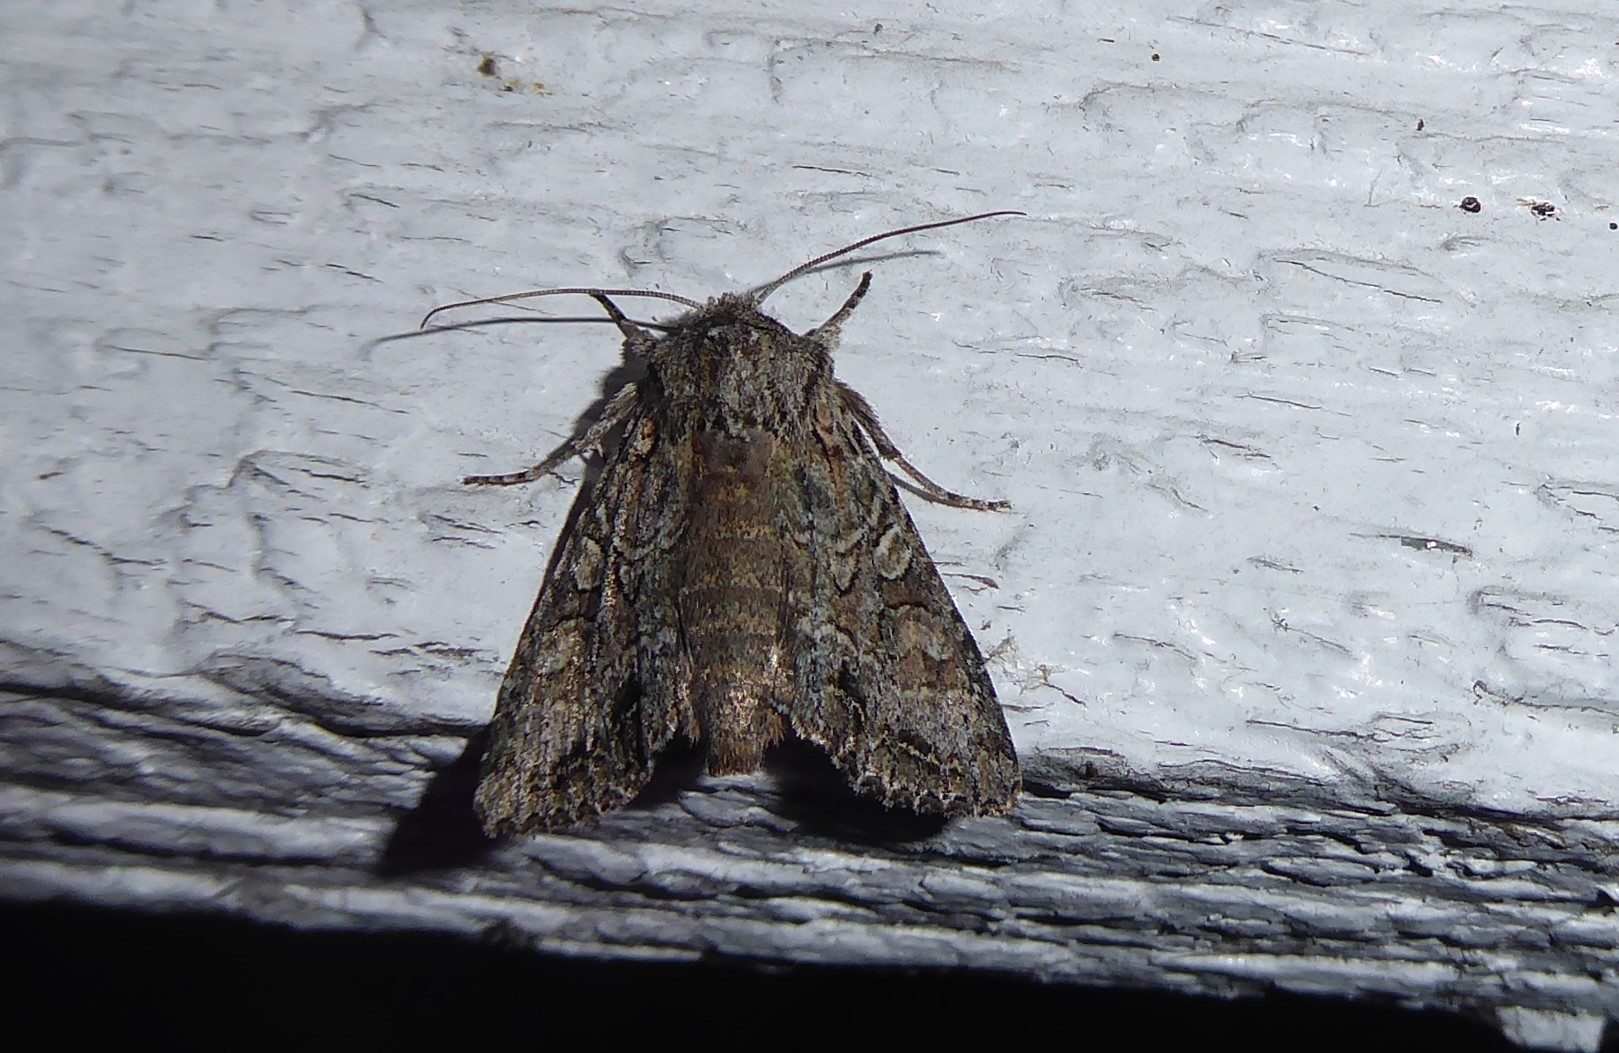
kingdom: Animalia
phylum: Arthropoda
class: Insecta
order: Lepidoptera
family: Noctuidae
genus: Ichneutica
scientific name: Ichneutica mutans
